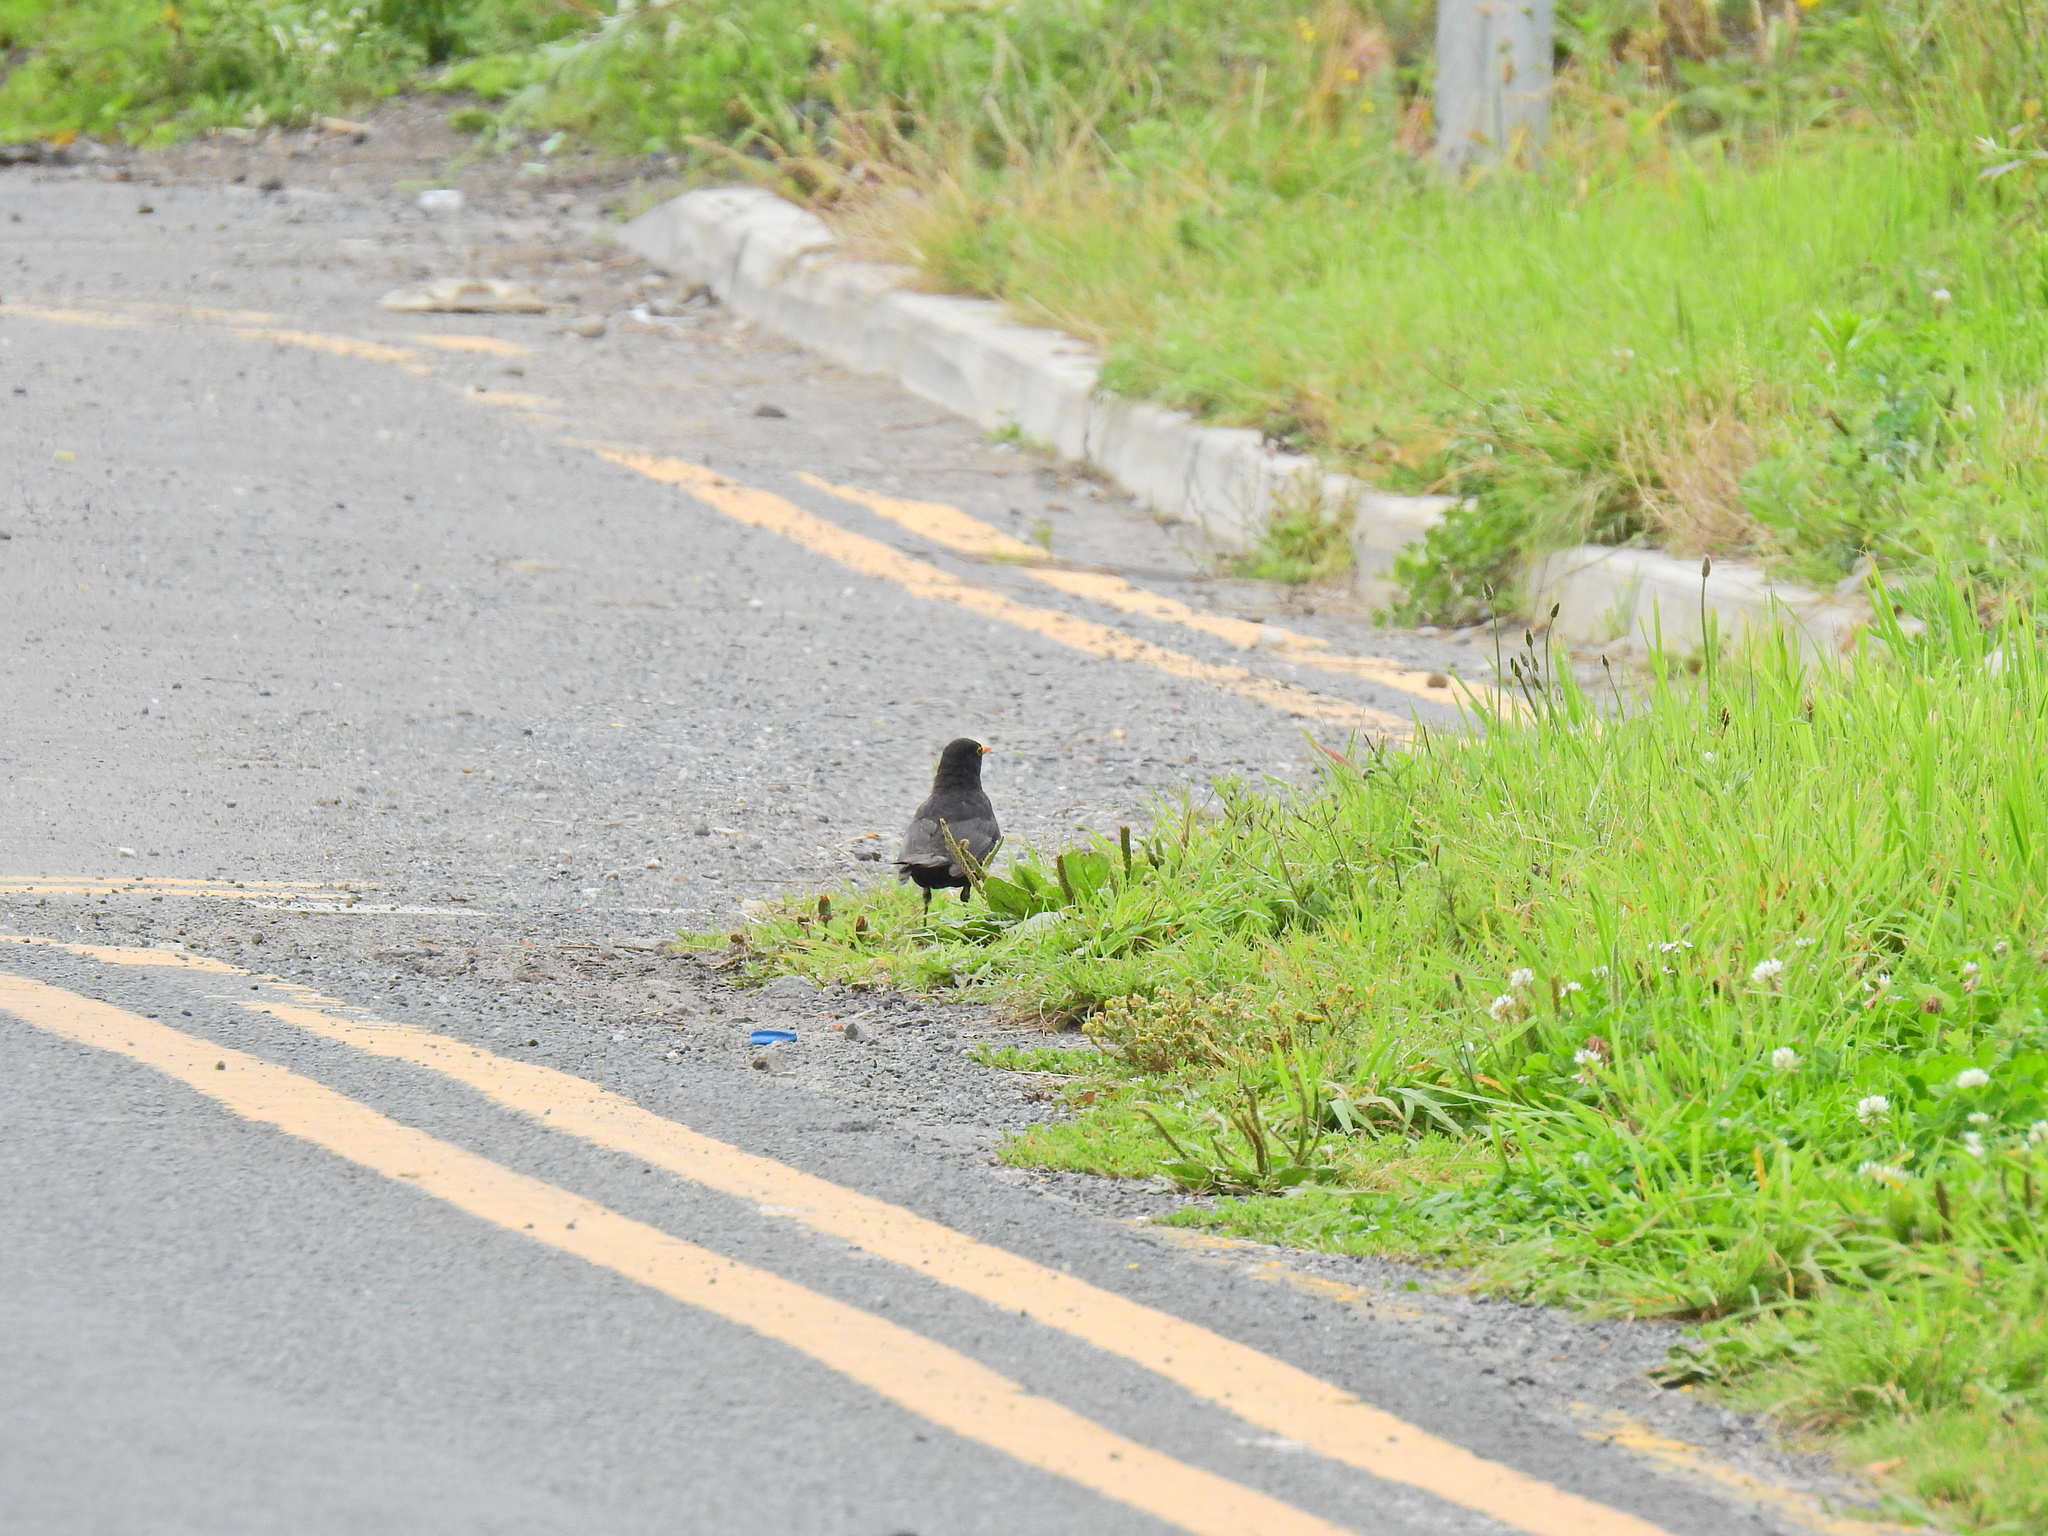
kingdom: Animalia
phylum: Chordata
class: Aves
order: Passeriformes
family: Turdidae
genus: Turdus
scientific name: Turdus merula
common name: Common blackbird
